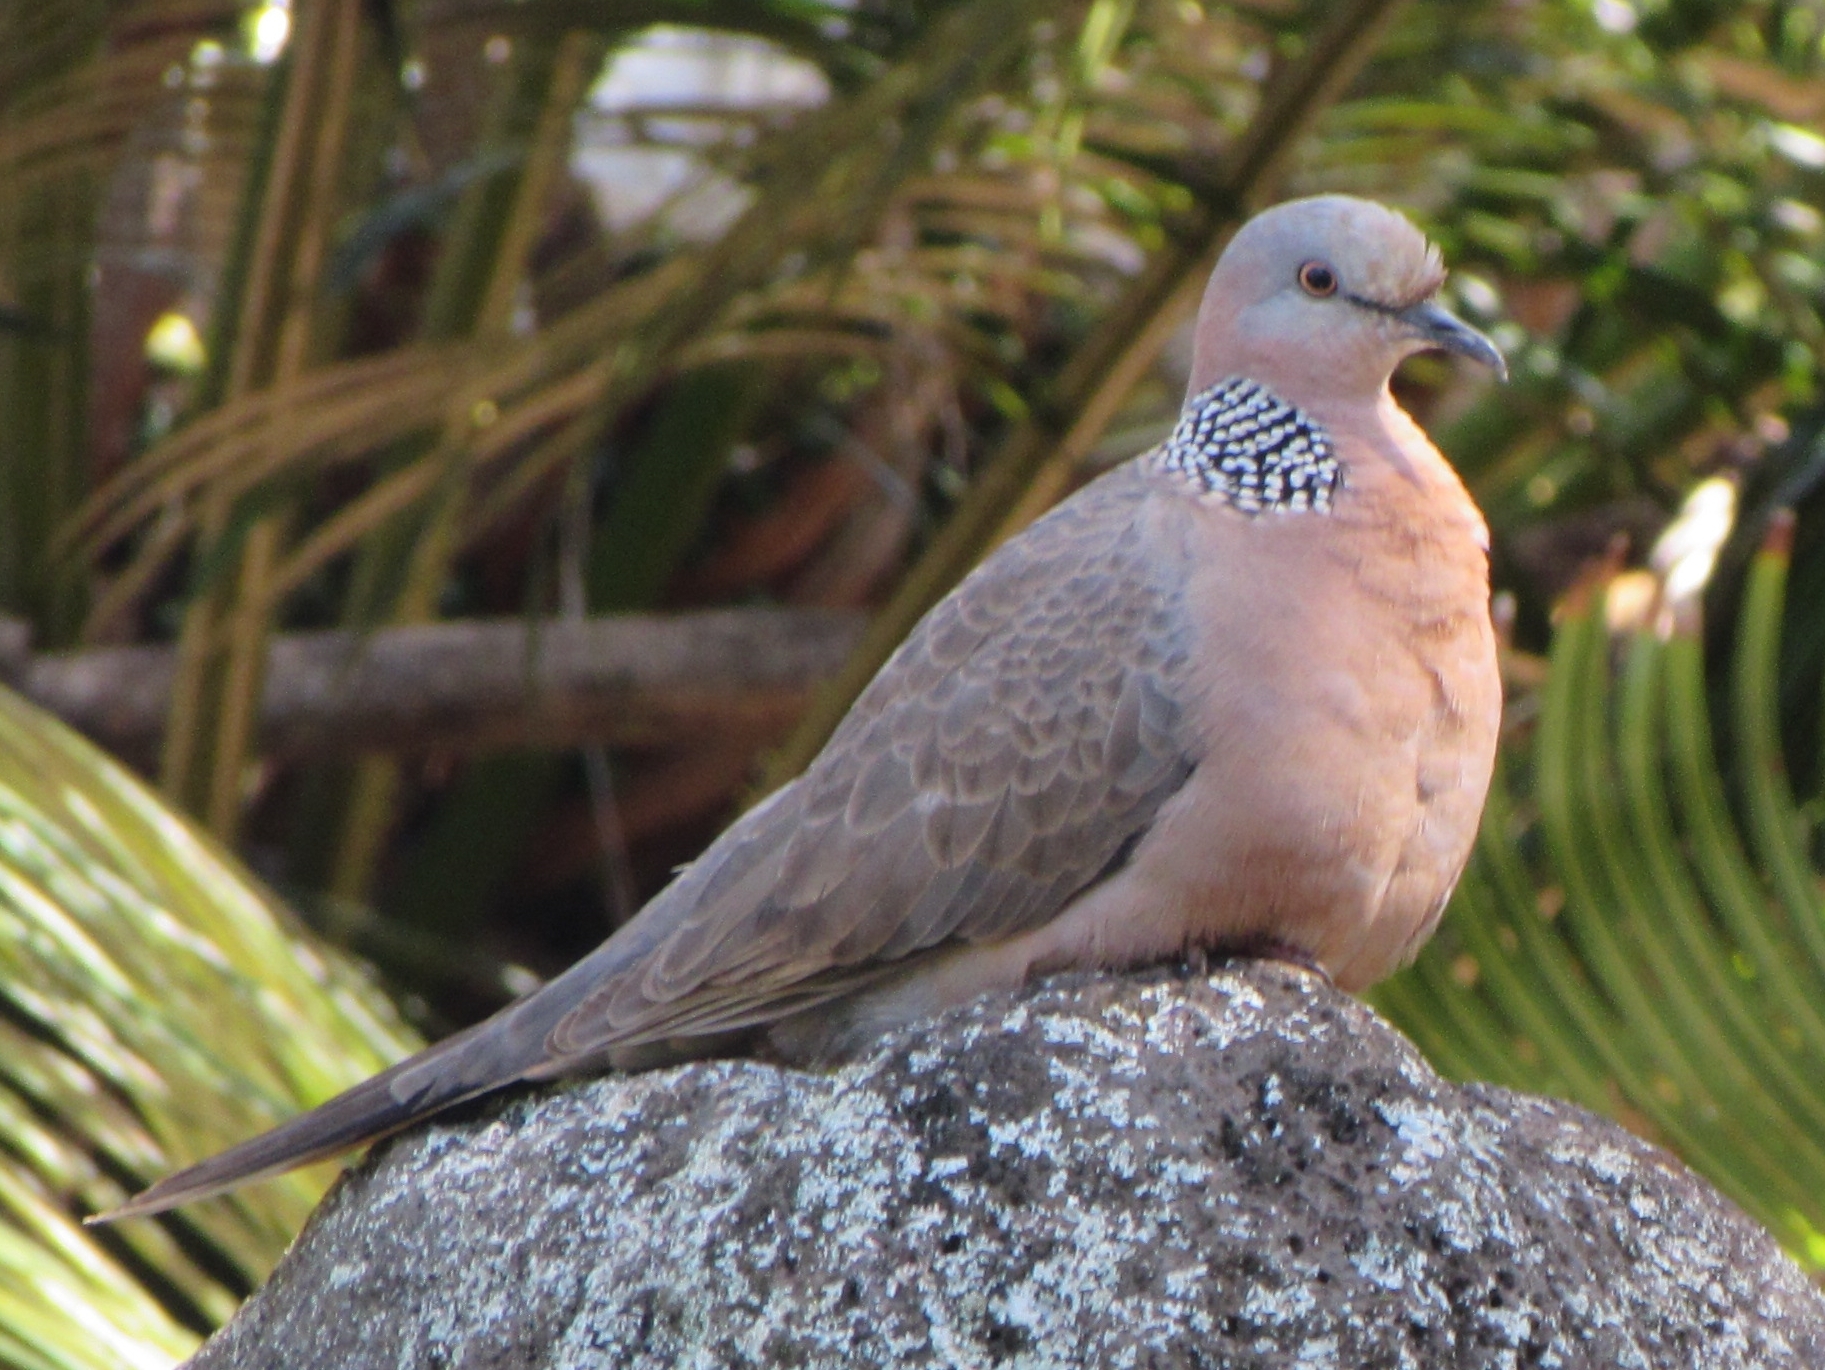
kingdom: Animalia
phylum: Chordata
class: Aves
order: Columbiformes
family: Columbidae
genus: Spilopelia
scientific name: Spilopelia chinensis
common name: Spotted dove
